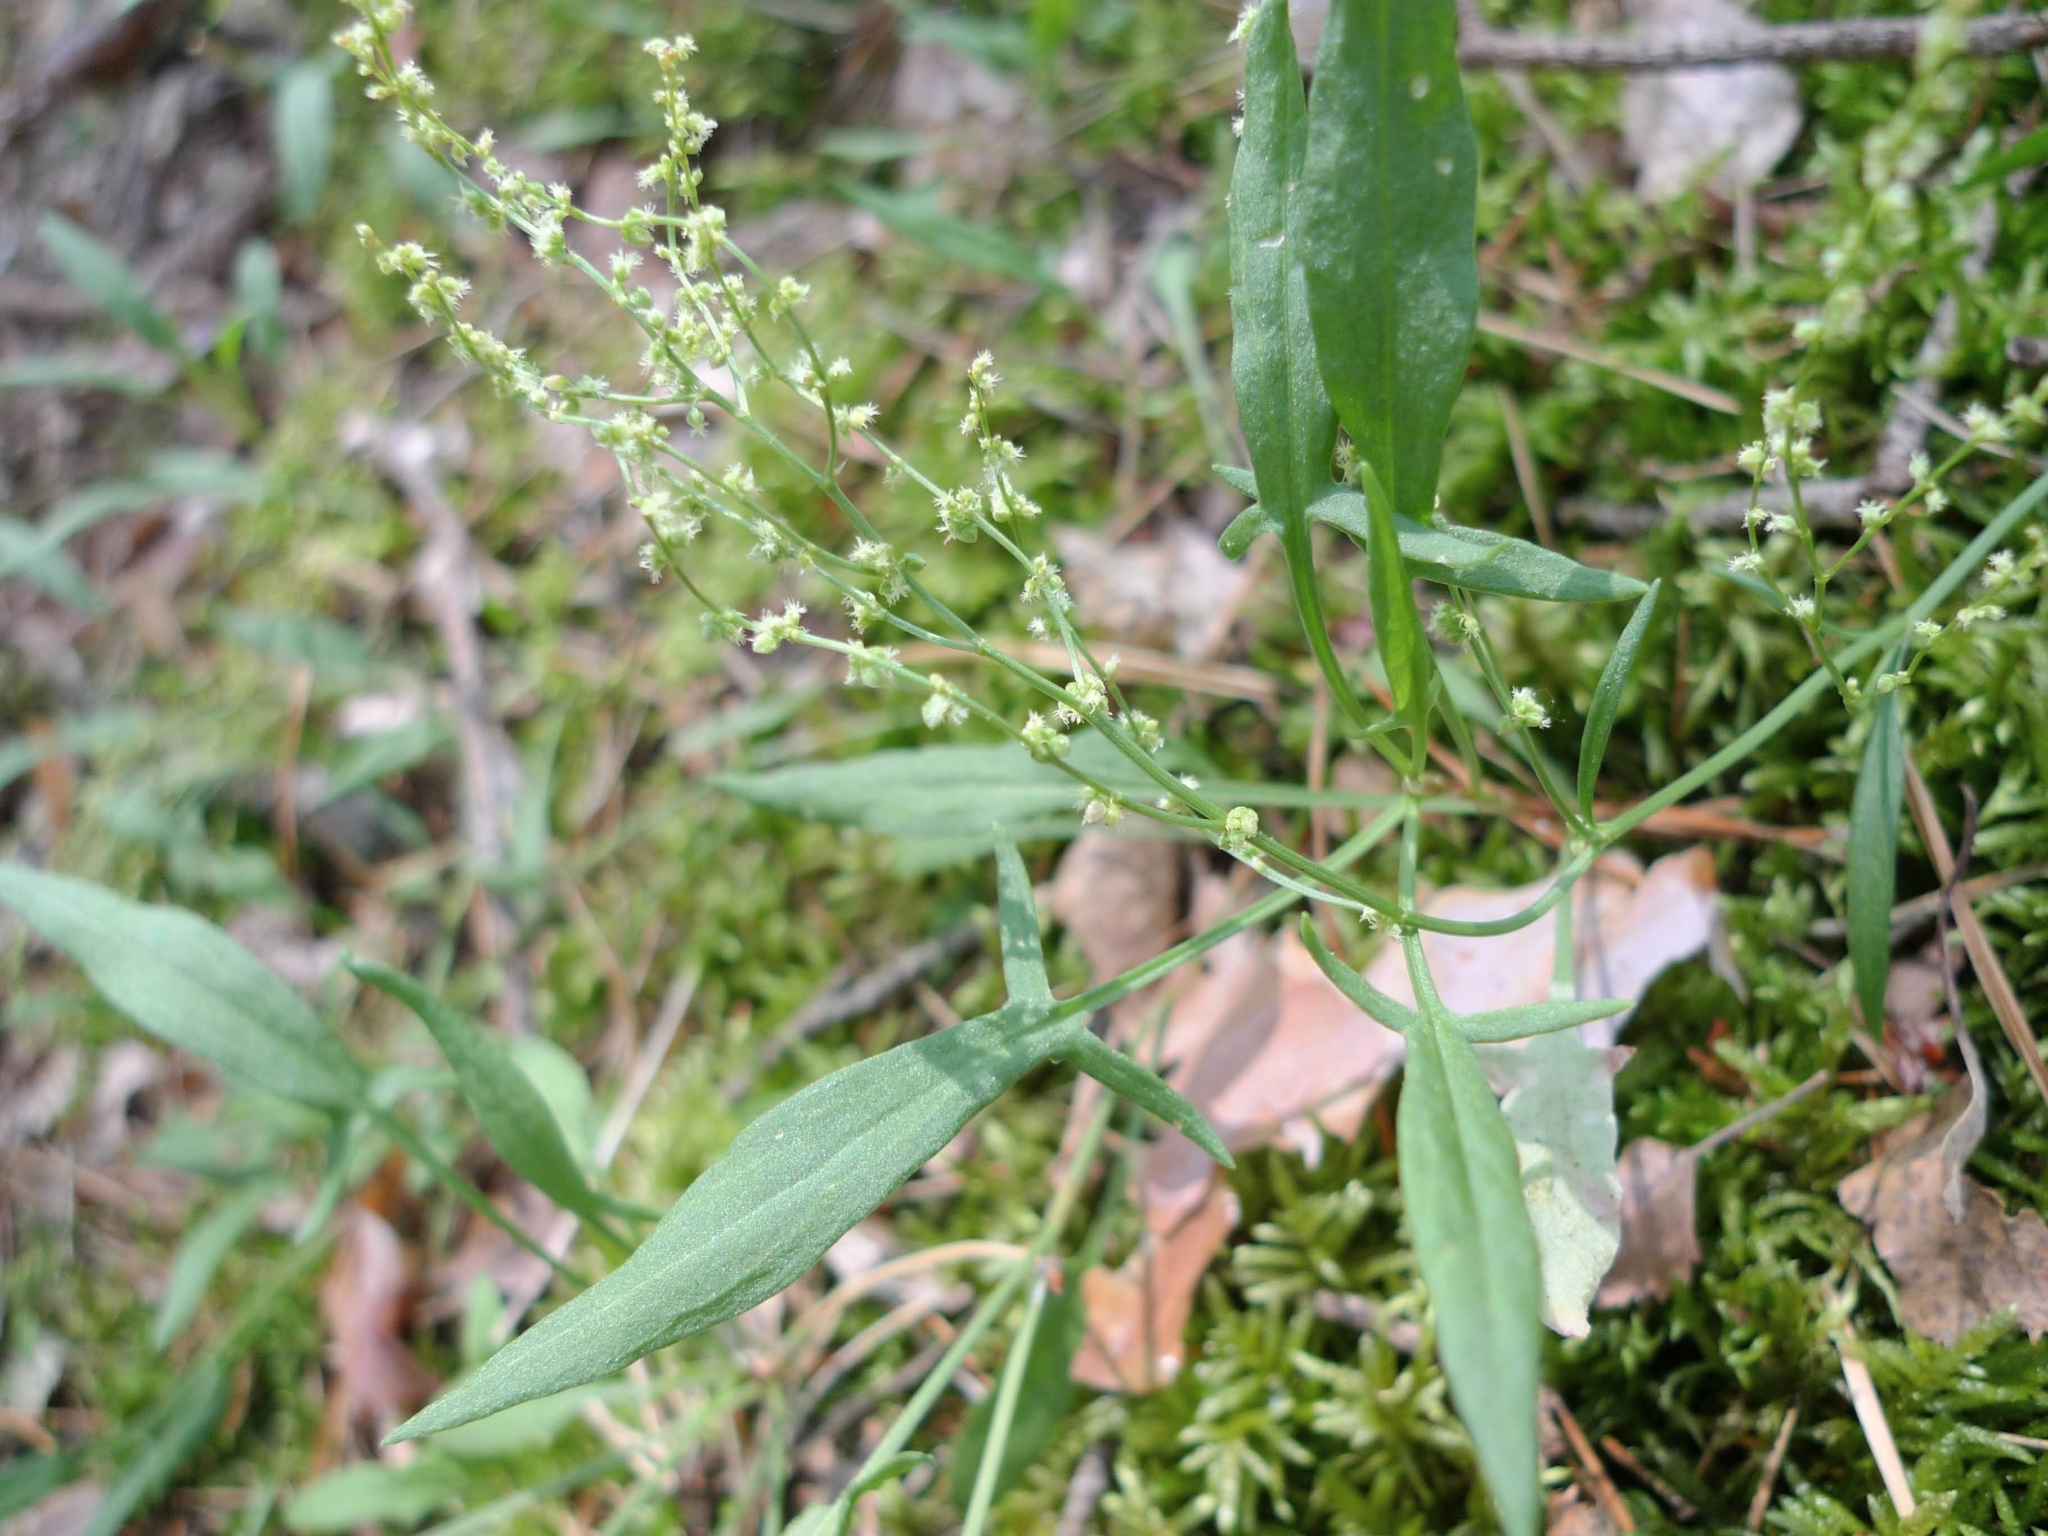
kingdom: Plantae
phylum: Tracheophyta
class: Magnoliopsida
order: Caryophyllales
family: Polygonaceae
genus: Rumex
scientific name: Rumex acetosella
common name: Common sheep sorrel
